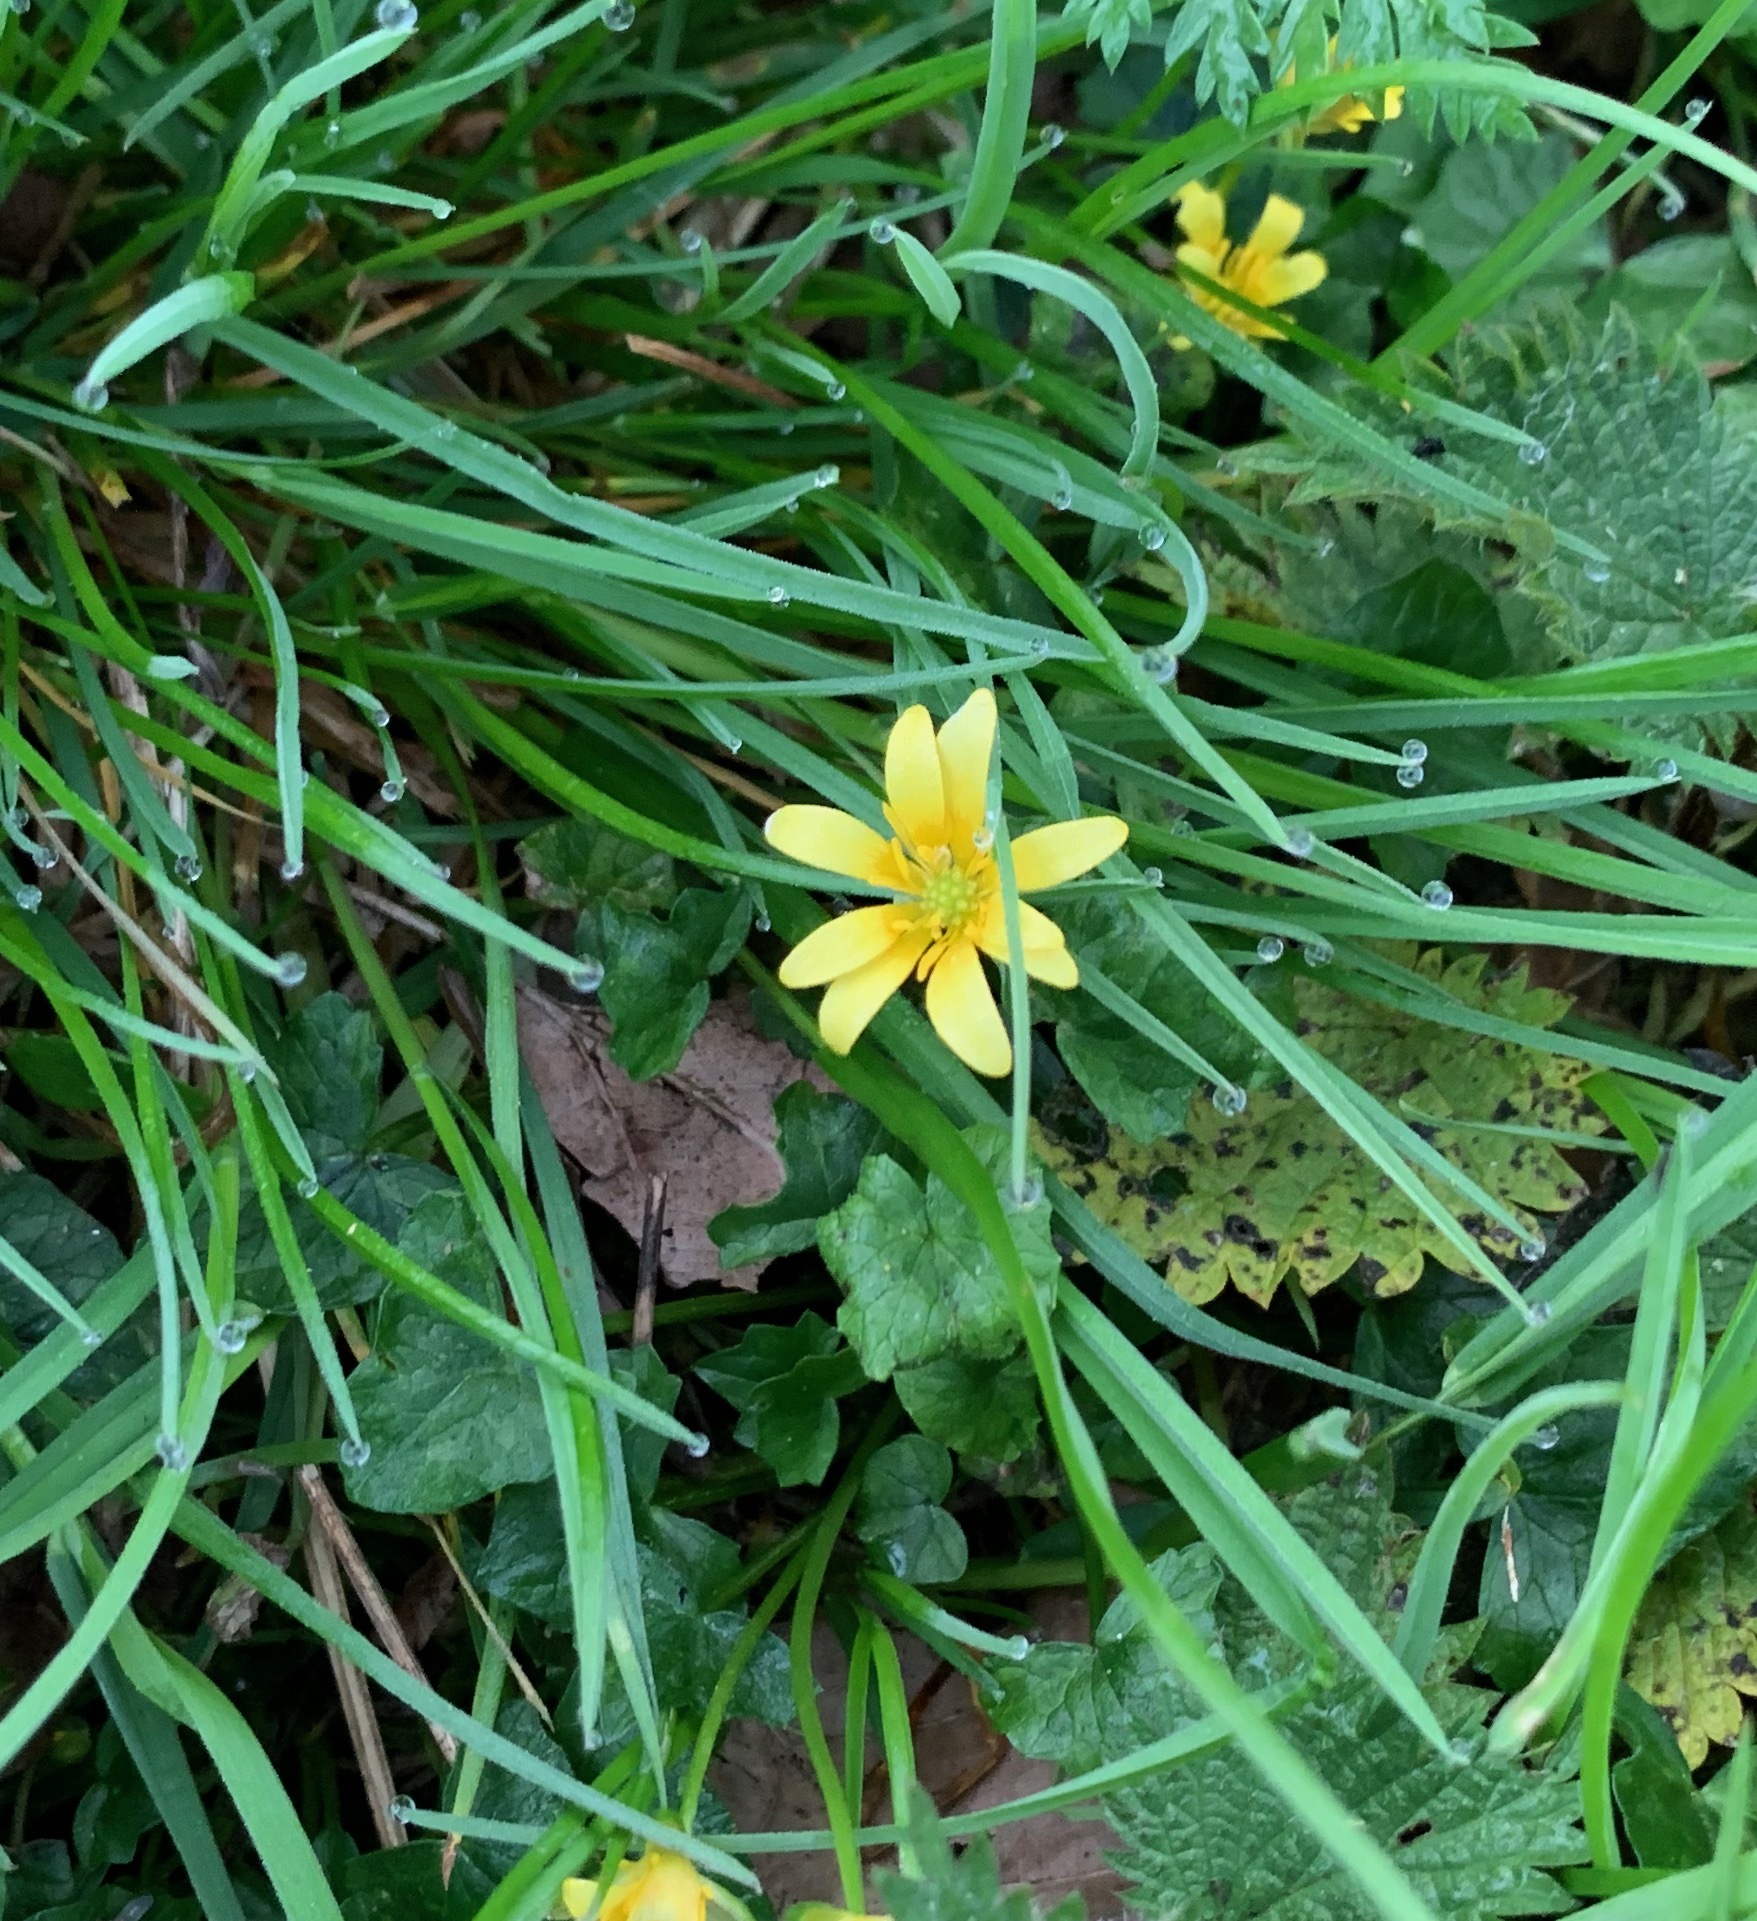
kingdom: Plantae
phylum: Tracheophyta
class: Magnoliopsida
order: Ranunculales
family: Ranunculaceae
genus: Ficaria
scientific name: Ficaria verna
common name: Lesser celandine
